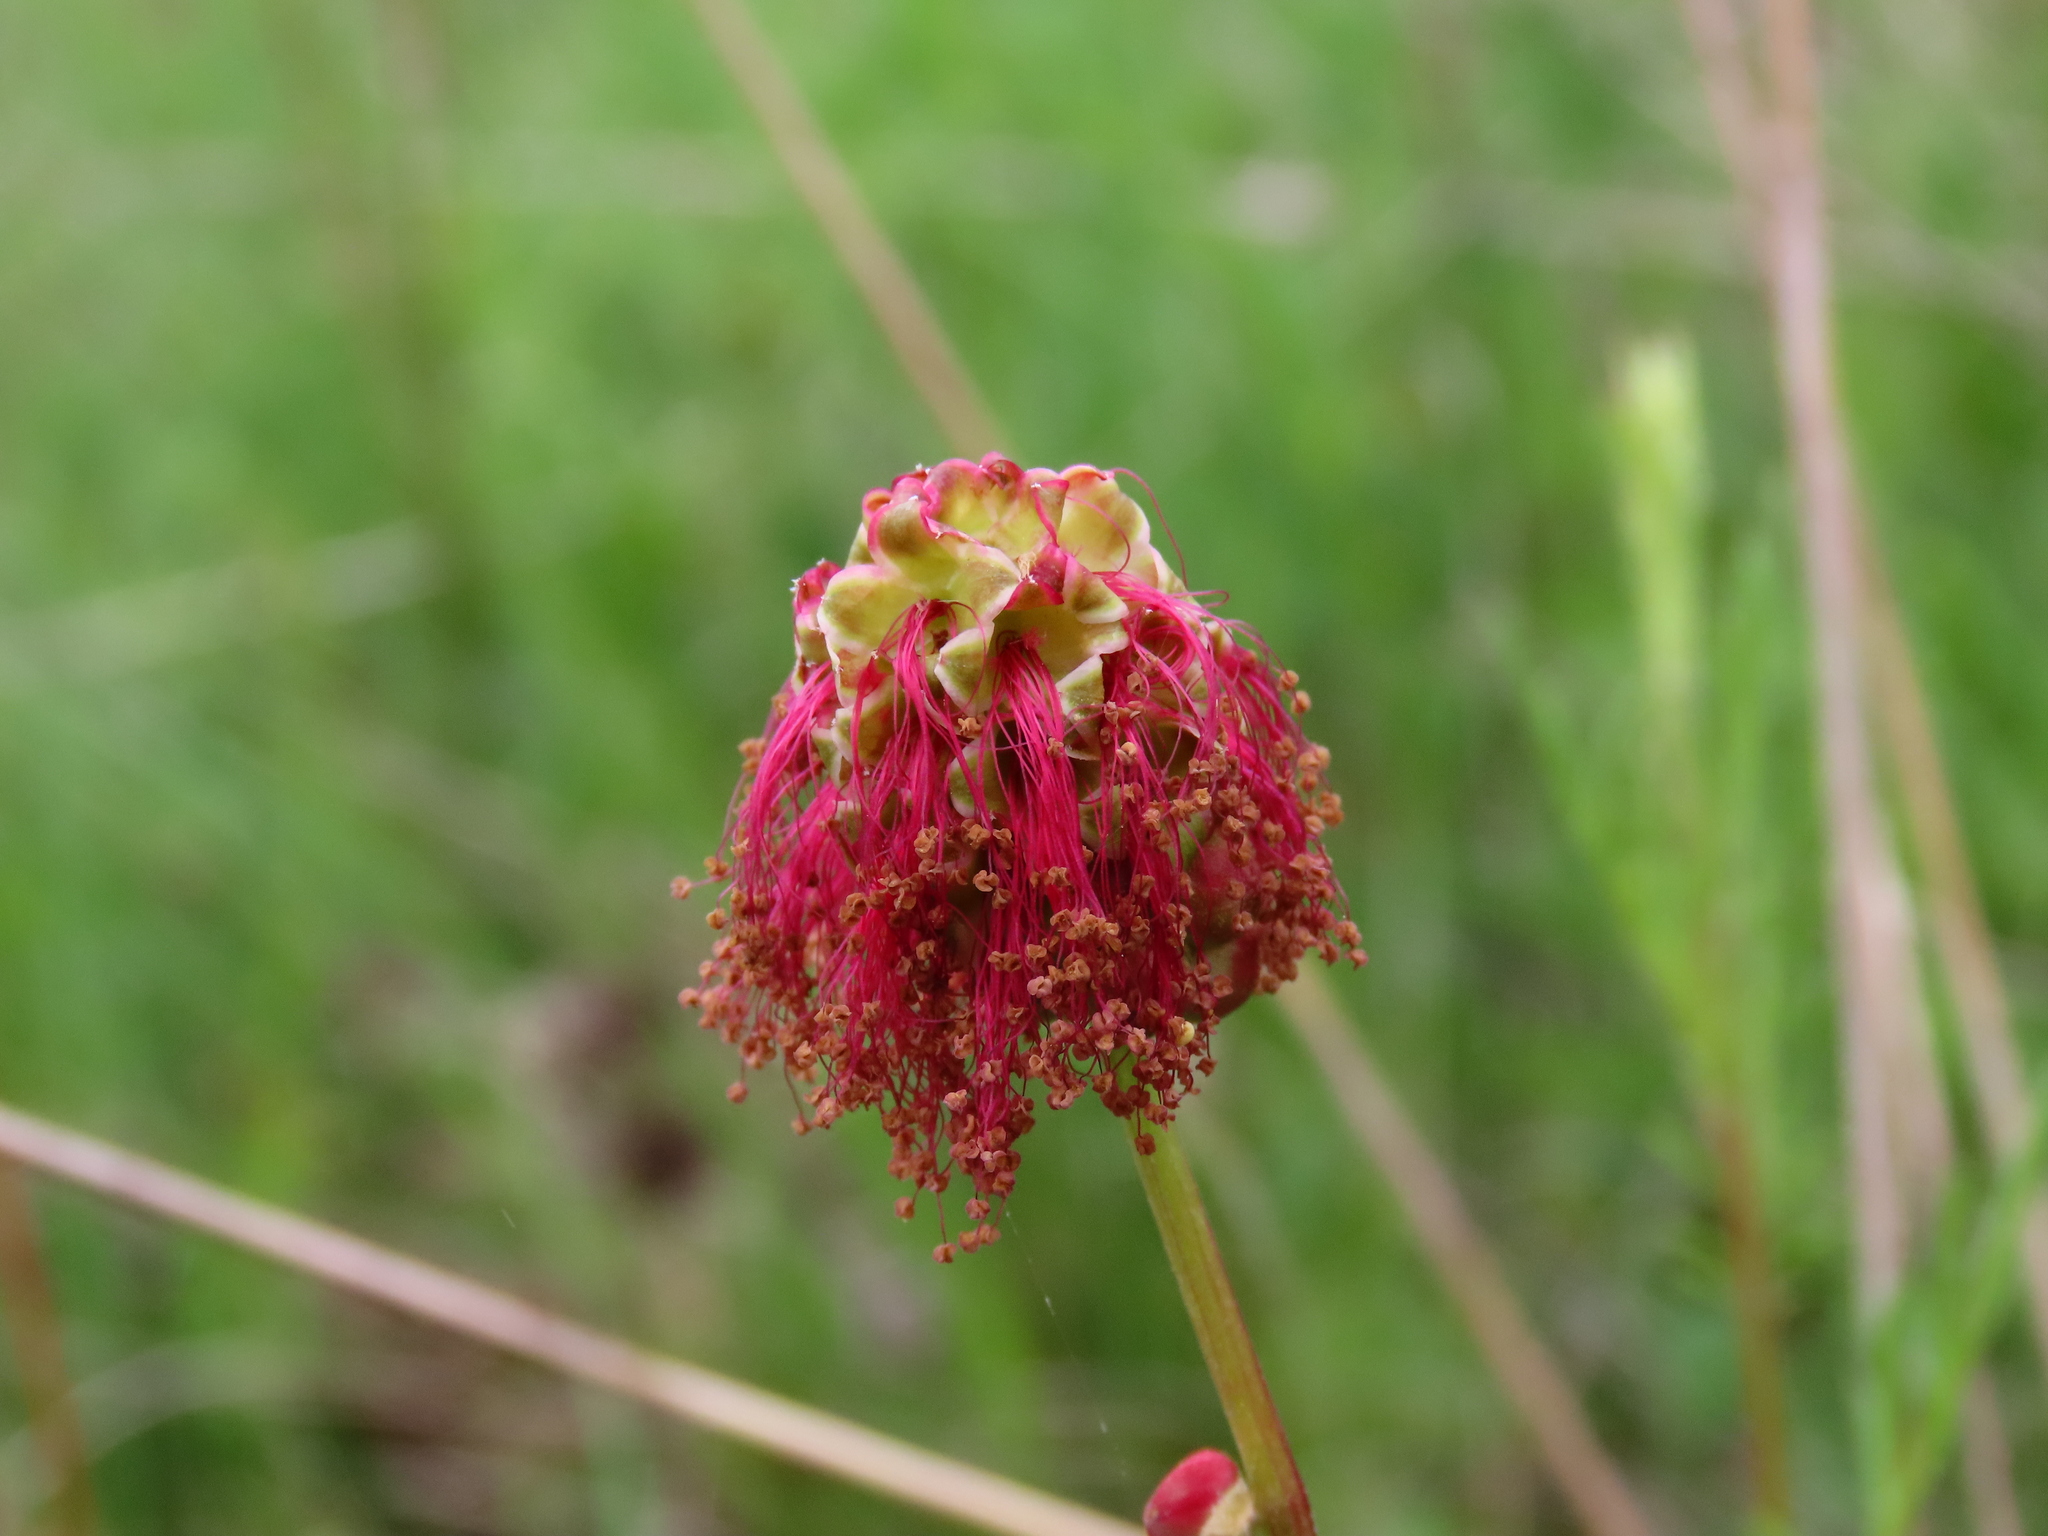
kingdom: Plantae
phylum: Tracheophyta
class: Magnoliopsida
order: Rosales
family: Rosaceae
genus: Poterium
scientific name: Poterium sanguisorba
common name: Salad burnet
